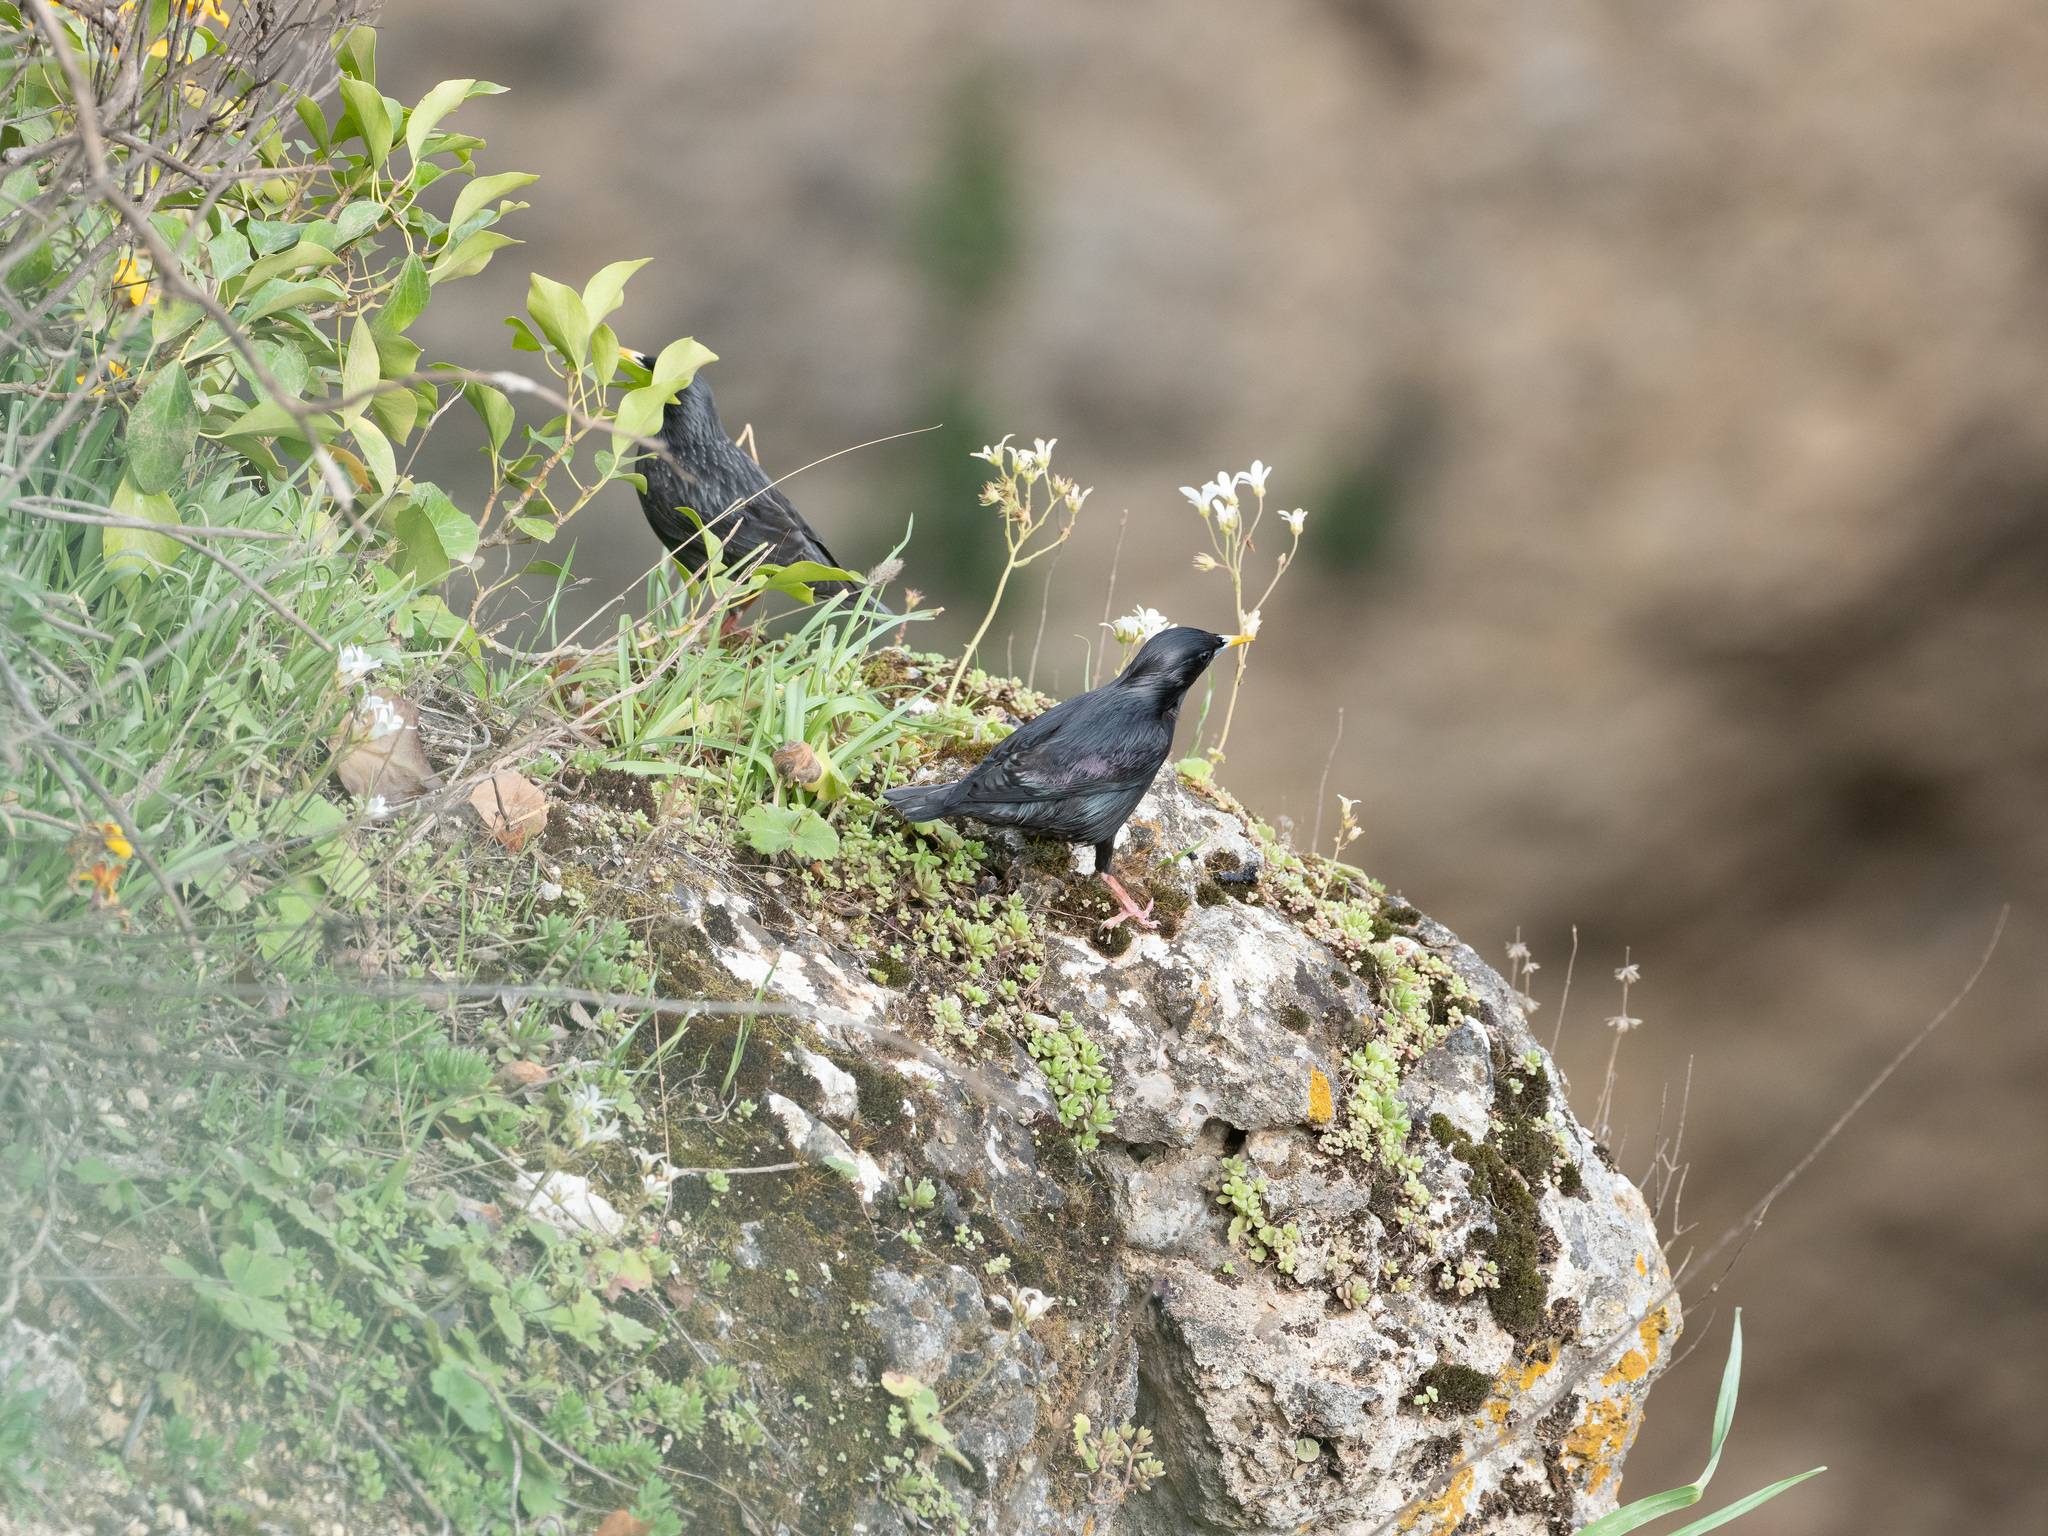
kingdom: Animalia
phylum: Chordata
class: Aves
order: Passeriformes
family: Sturnidae
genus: Sturnus
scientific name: Sturnus unicolor
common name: Spotless starling
